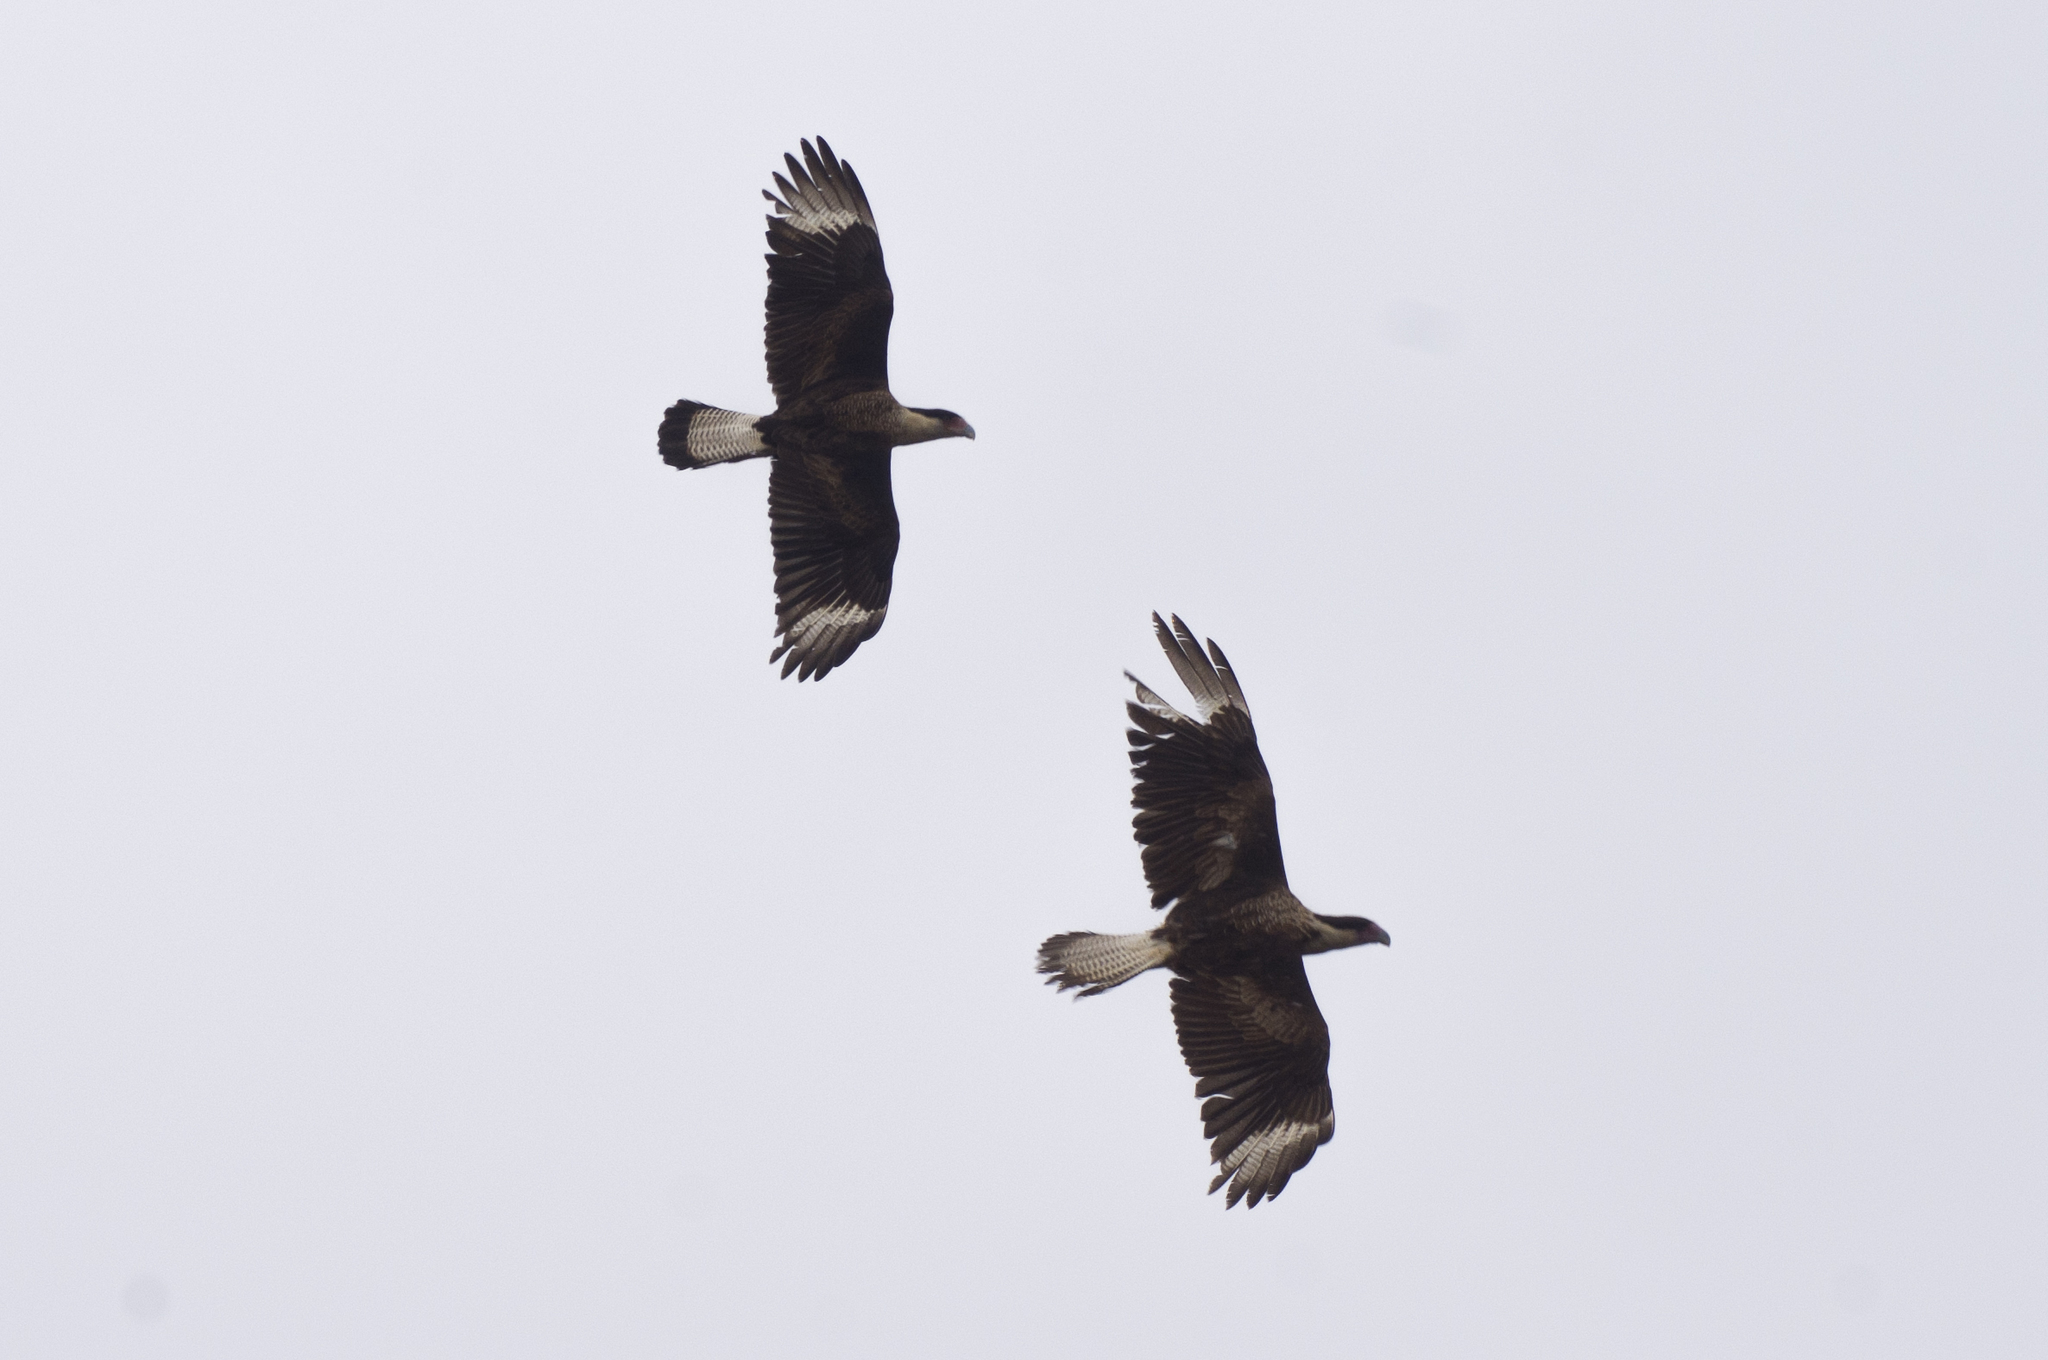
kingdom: Animalia
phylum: Chordata
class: Aves
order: Falconiformes
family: Falconidae
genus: Caracara
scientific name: Caracara plancus
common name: Southern caracara
